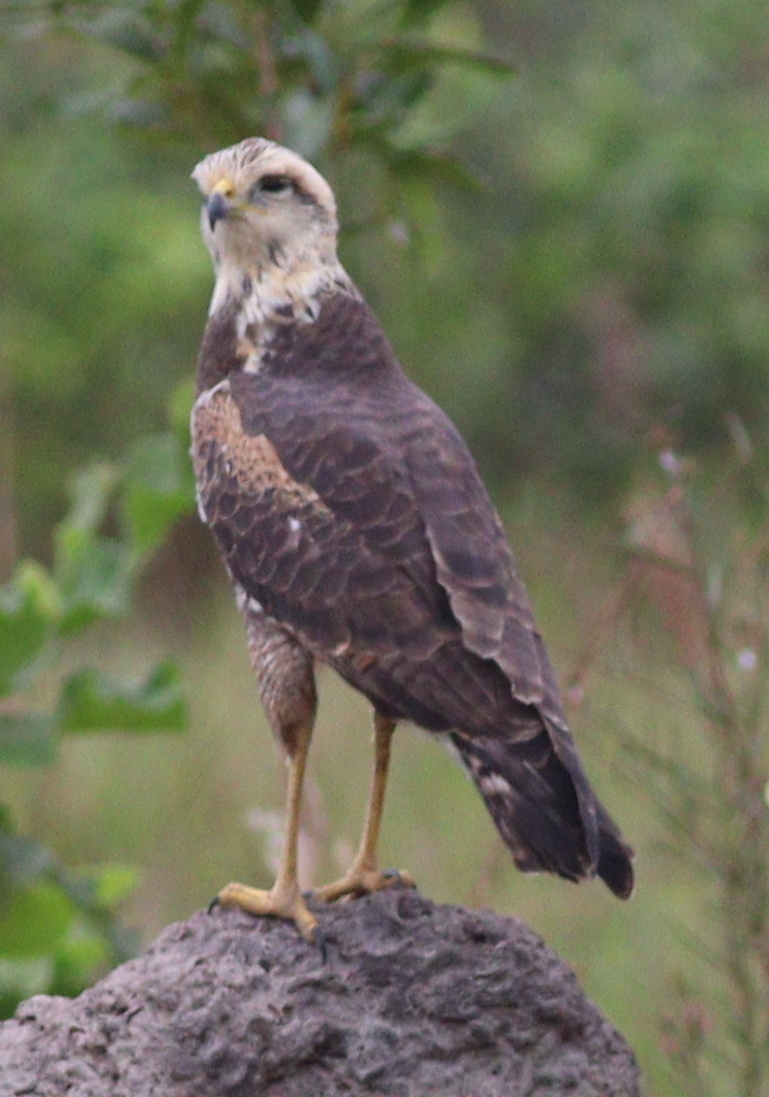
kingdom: Animalia
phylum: Chordata
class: Aves
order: Accipitriformes
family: Accipitridae
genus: Buteogallus
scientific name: Buteogallus meridionalis
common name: Savanna hawk
